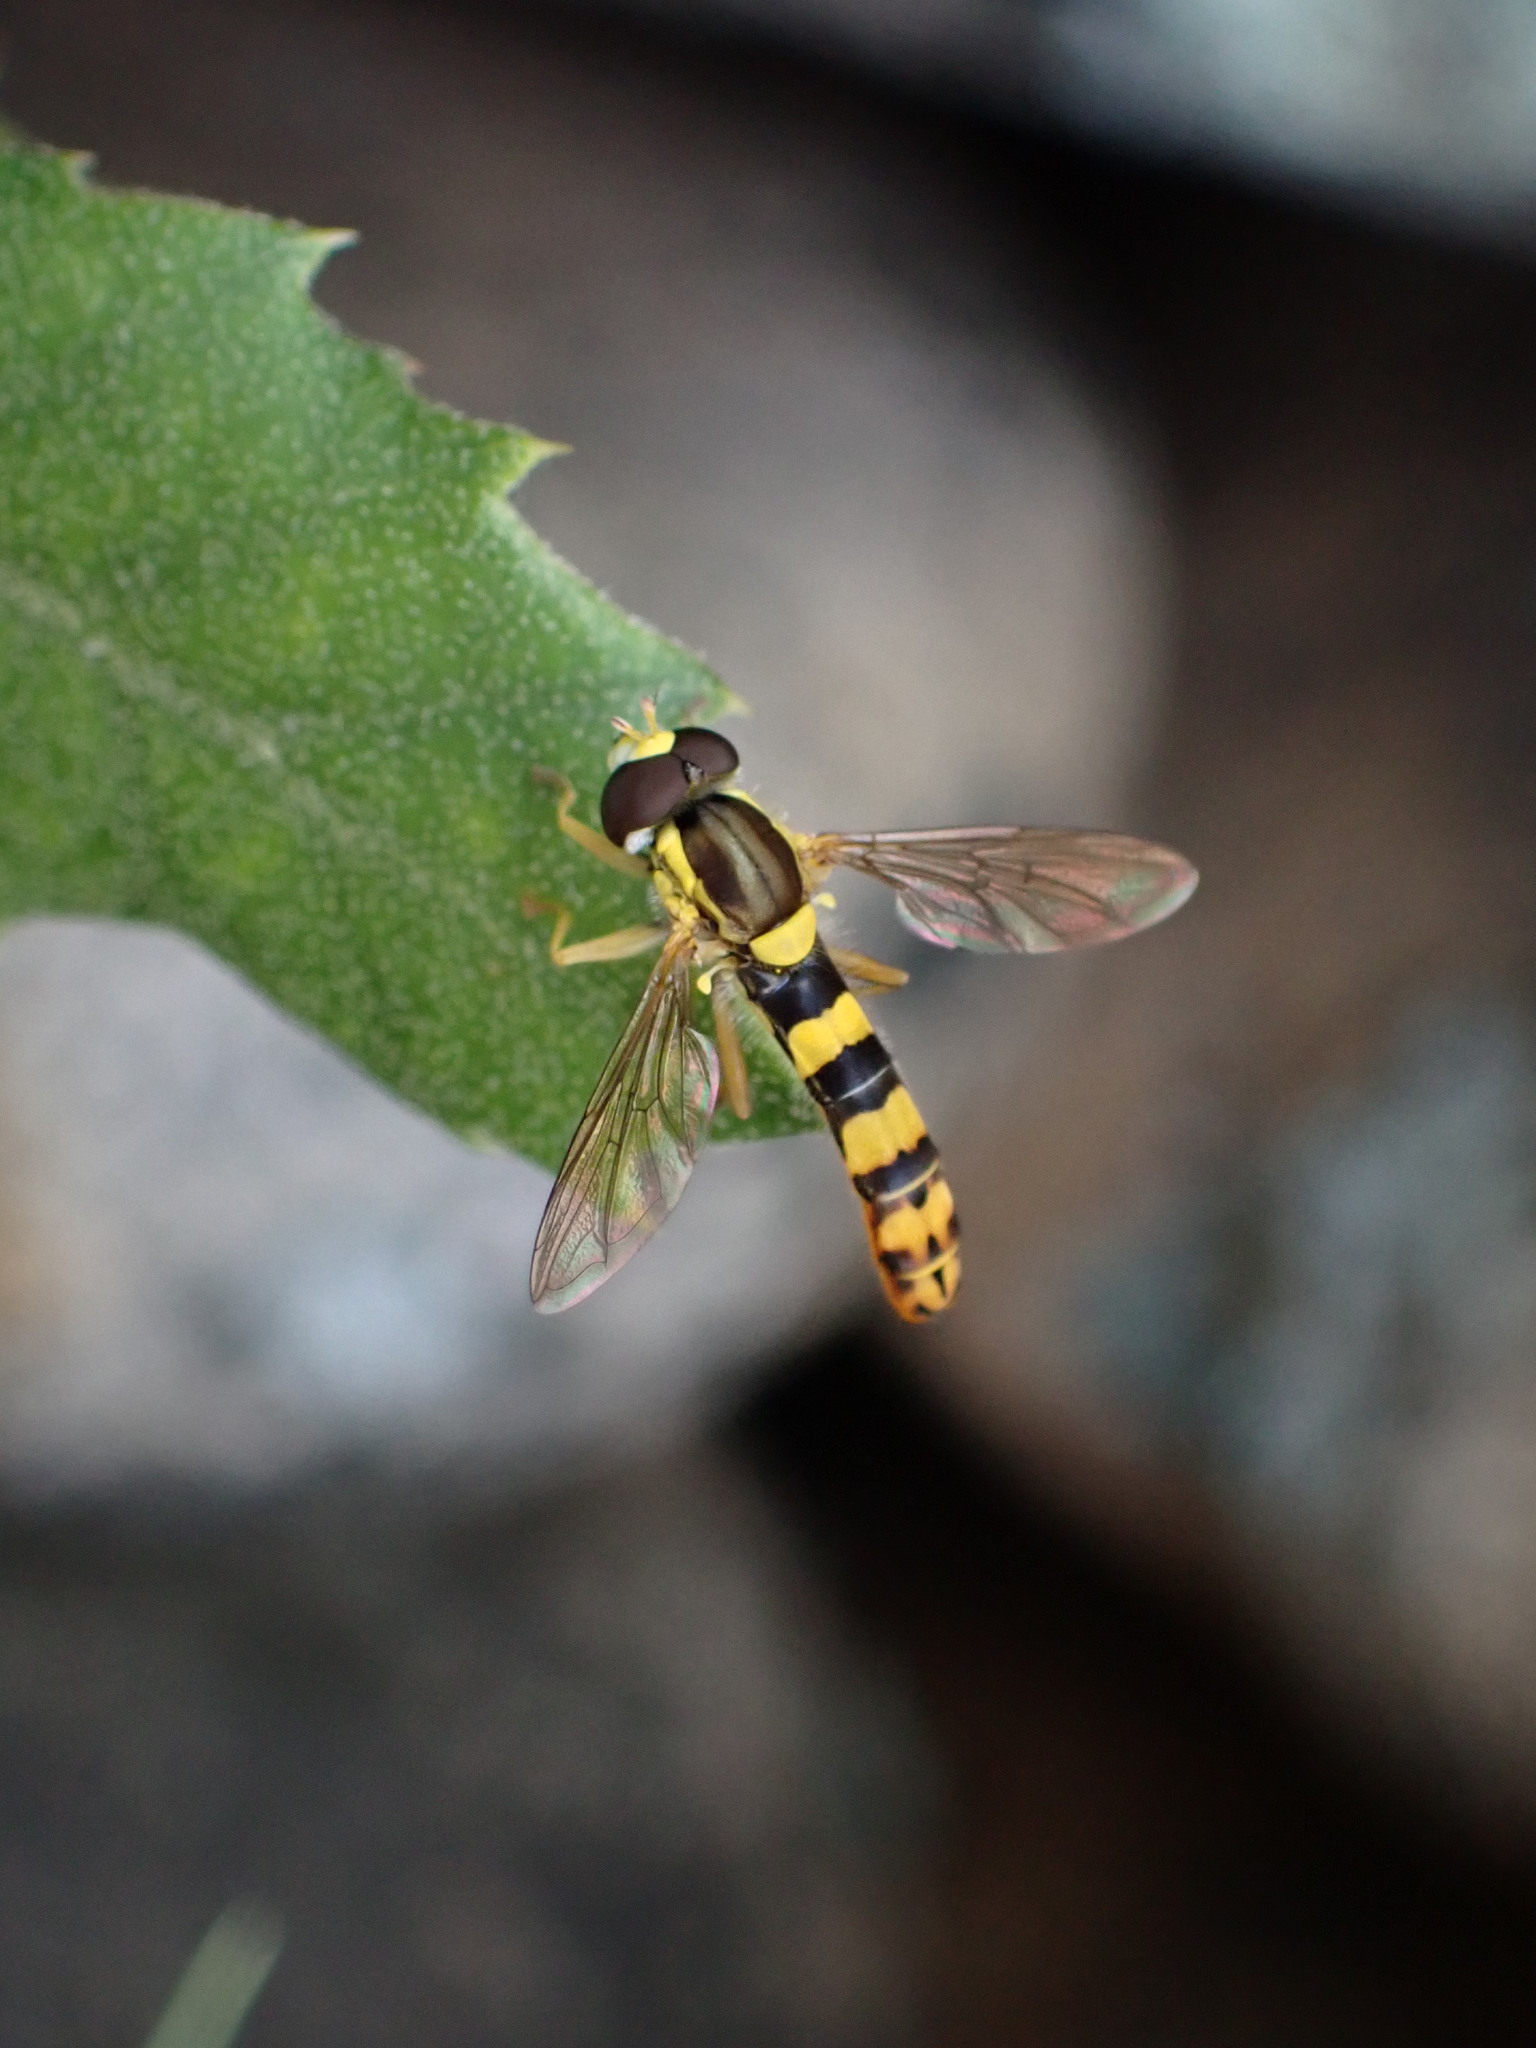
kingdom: Animalia
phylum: Arthropoda
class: Insecta
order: Diptera
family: Syrphidae
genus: Sphaerophoria
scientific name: Sphaerophoria scripta
